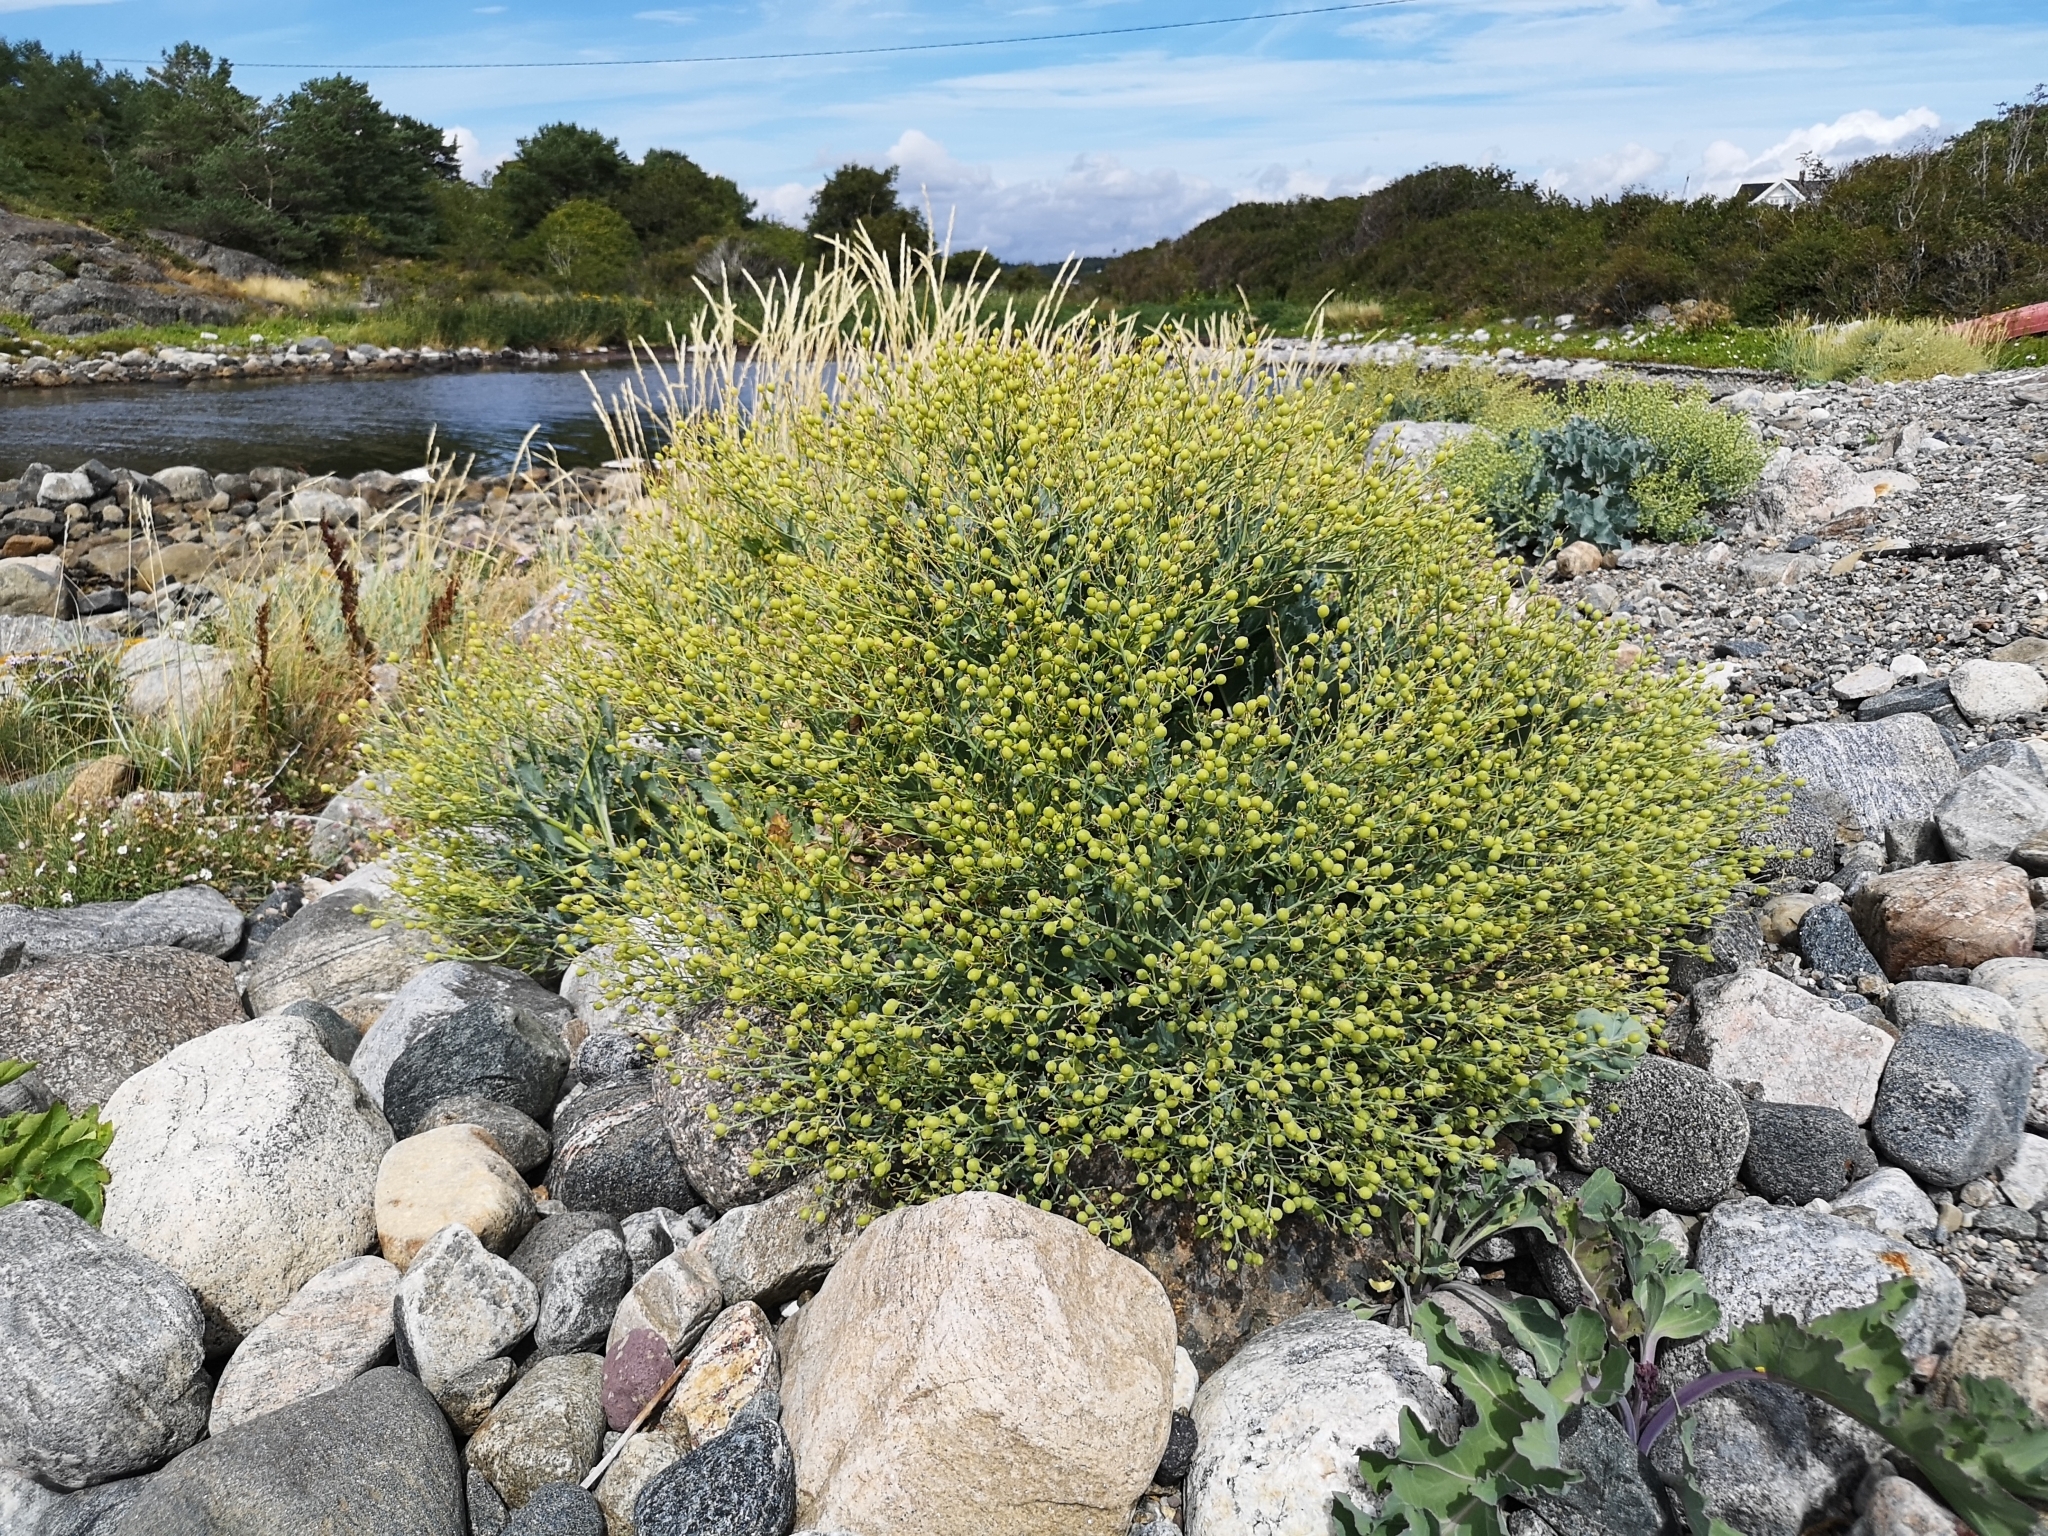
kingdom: Plantae
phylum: Tracheophyta
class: Magnoliopsida
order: Brassicales
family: Brassicaceae
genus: Crambe
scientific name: Crambe maritima
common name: Sea-kale
